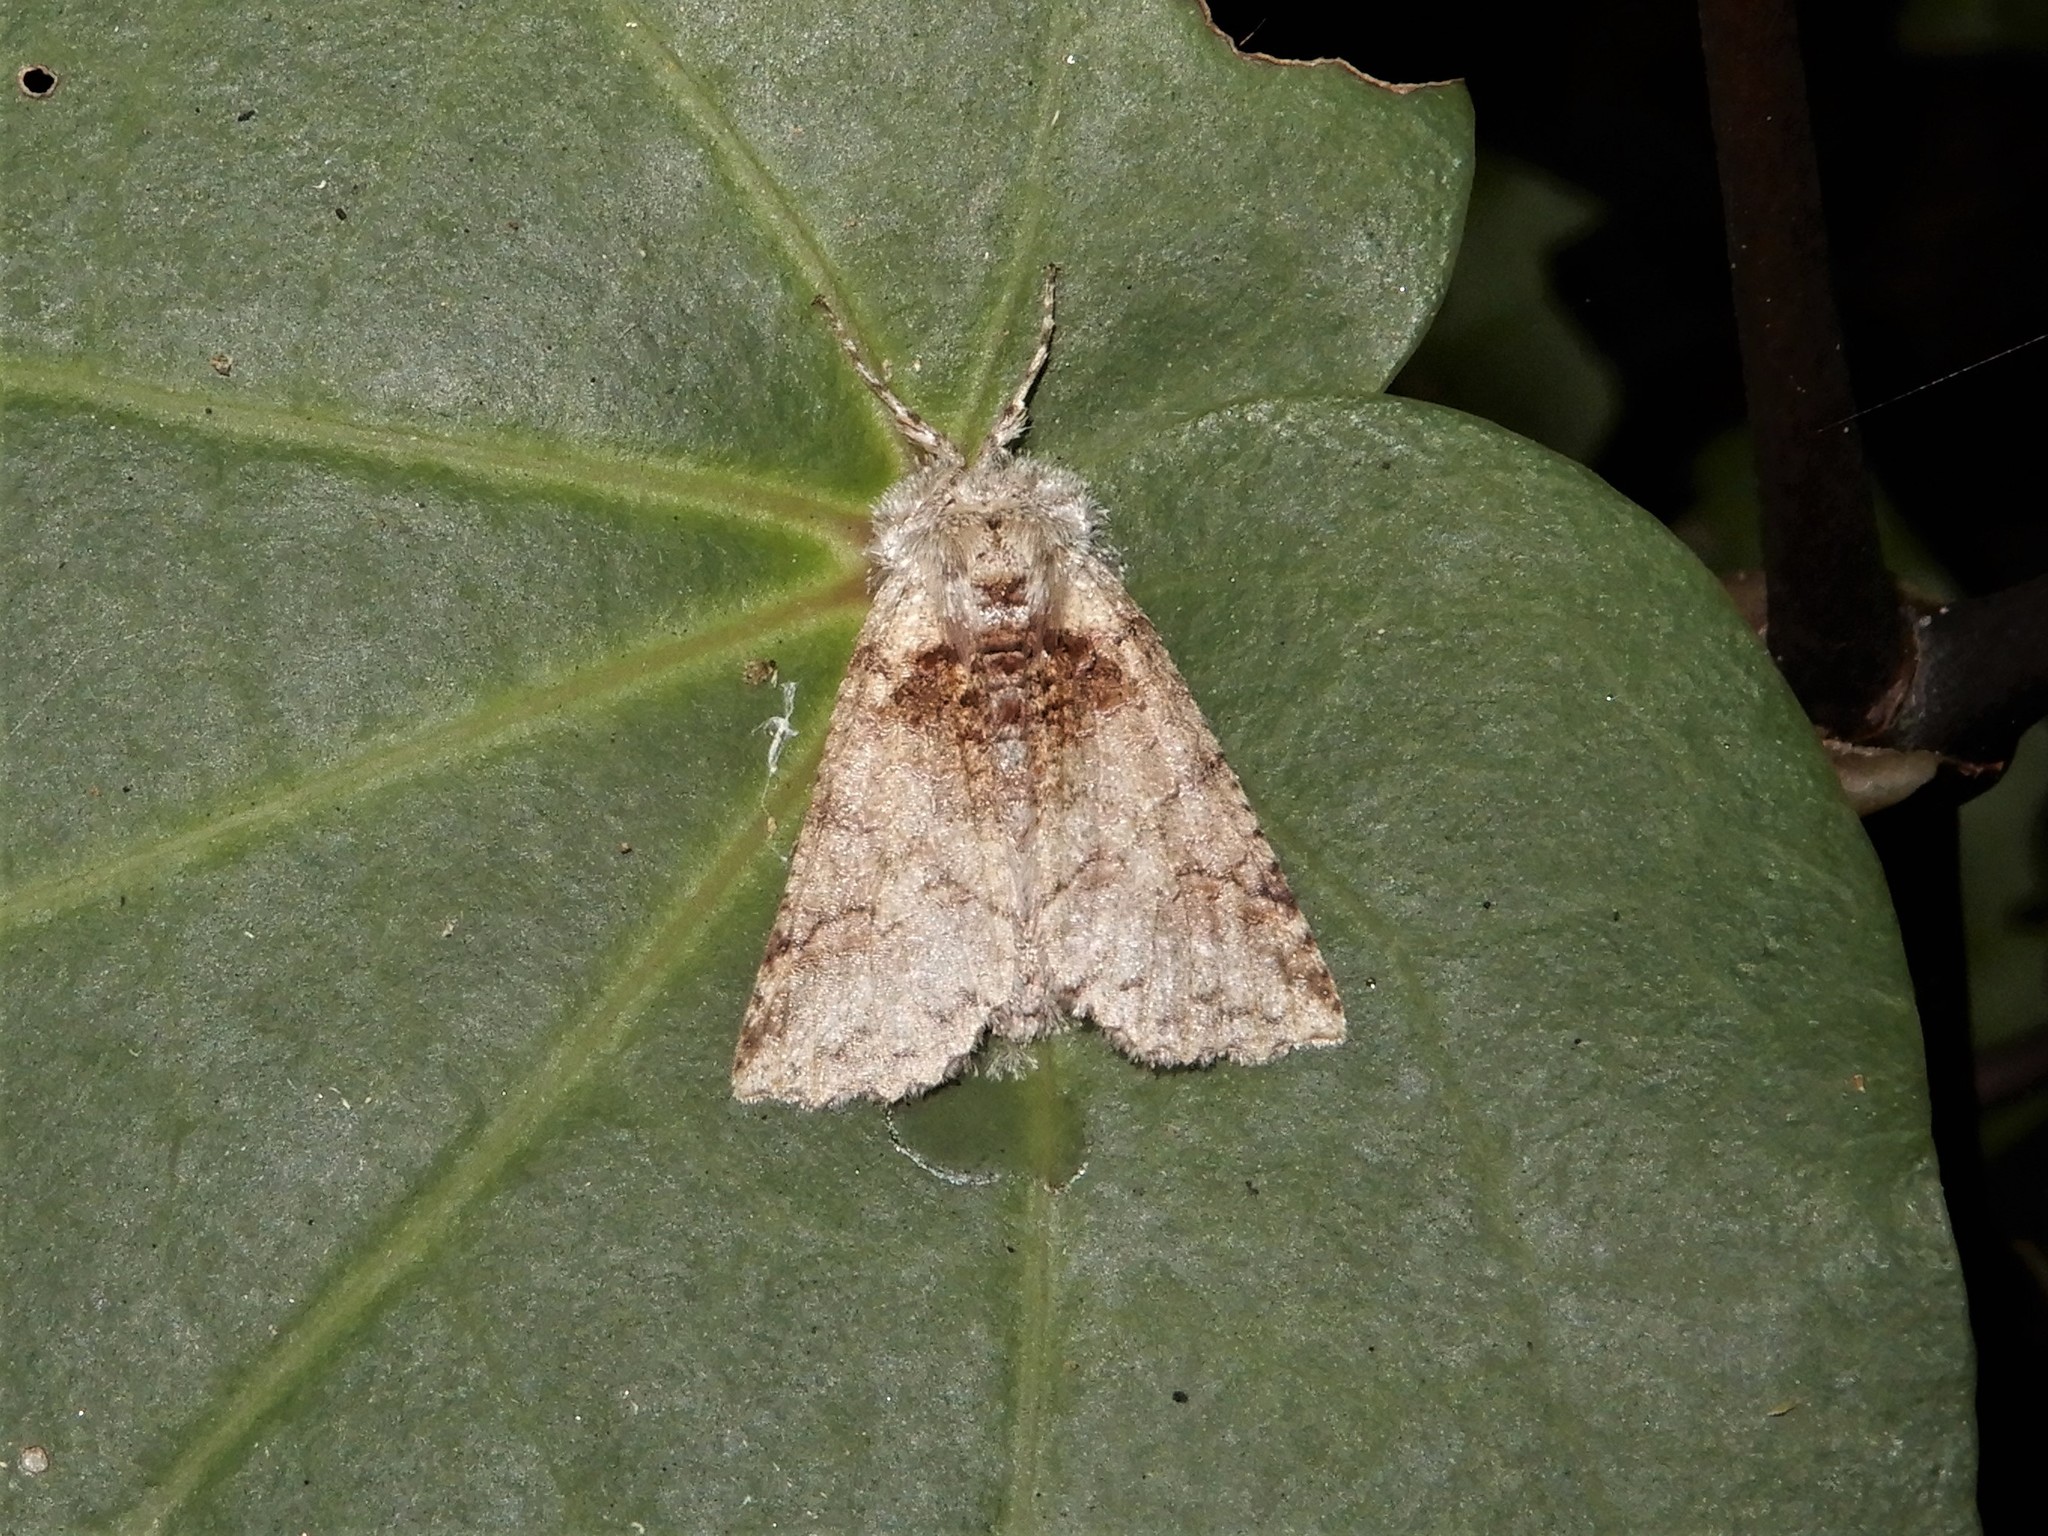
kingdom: Animalia
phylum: Arthropoda
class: Insecta
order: Lepidoptera
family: Geometridae
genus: Declana
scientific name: Declana floccosa
